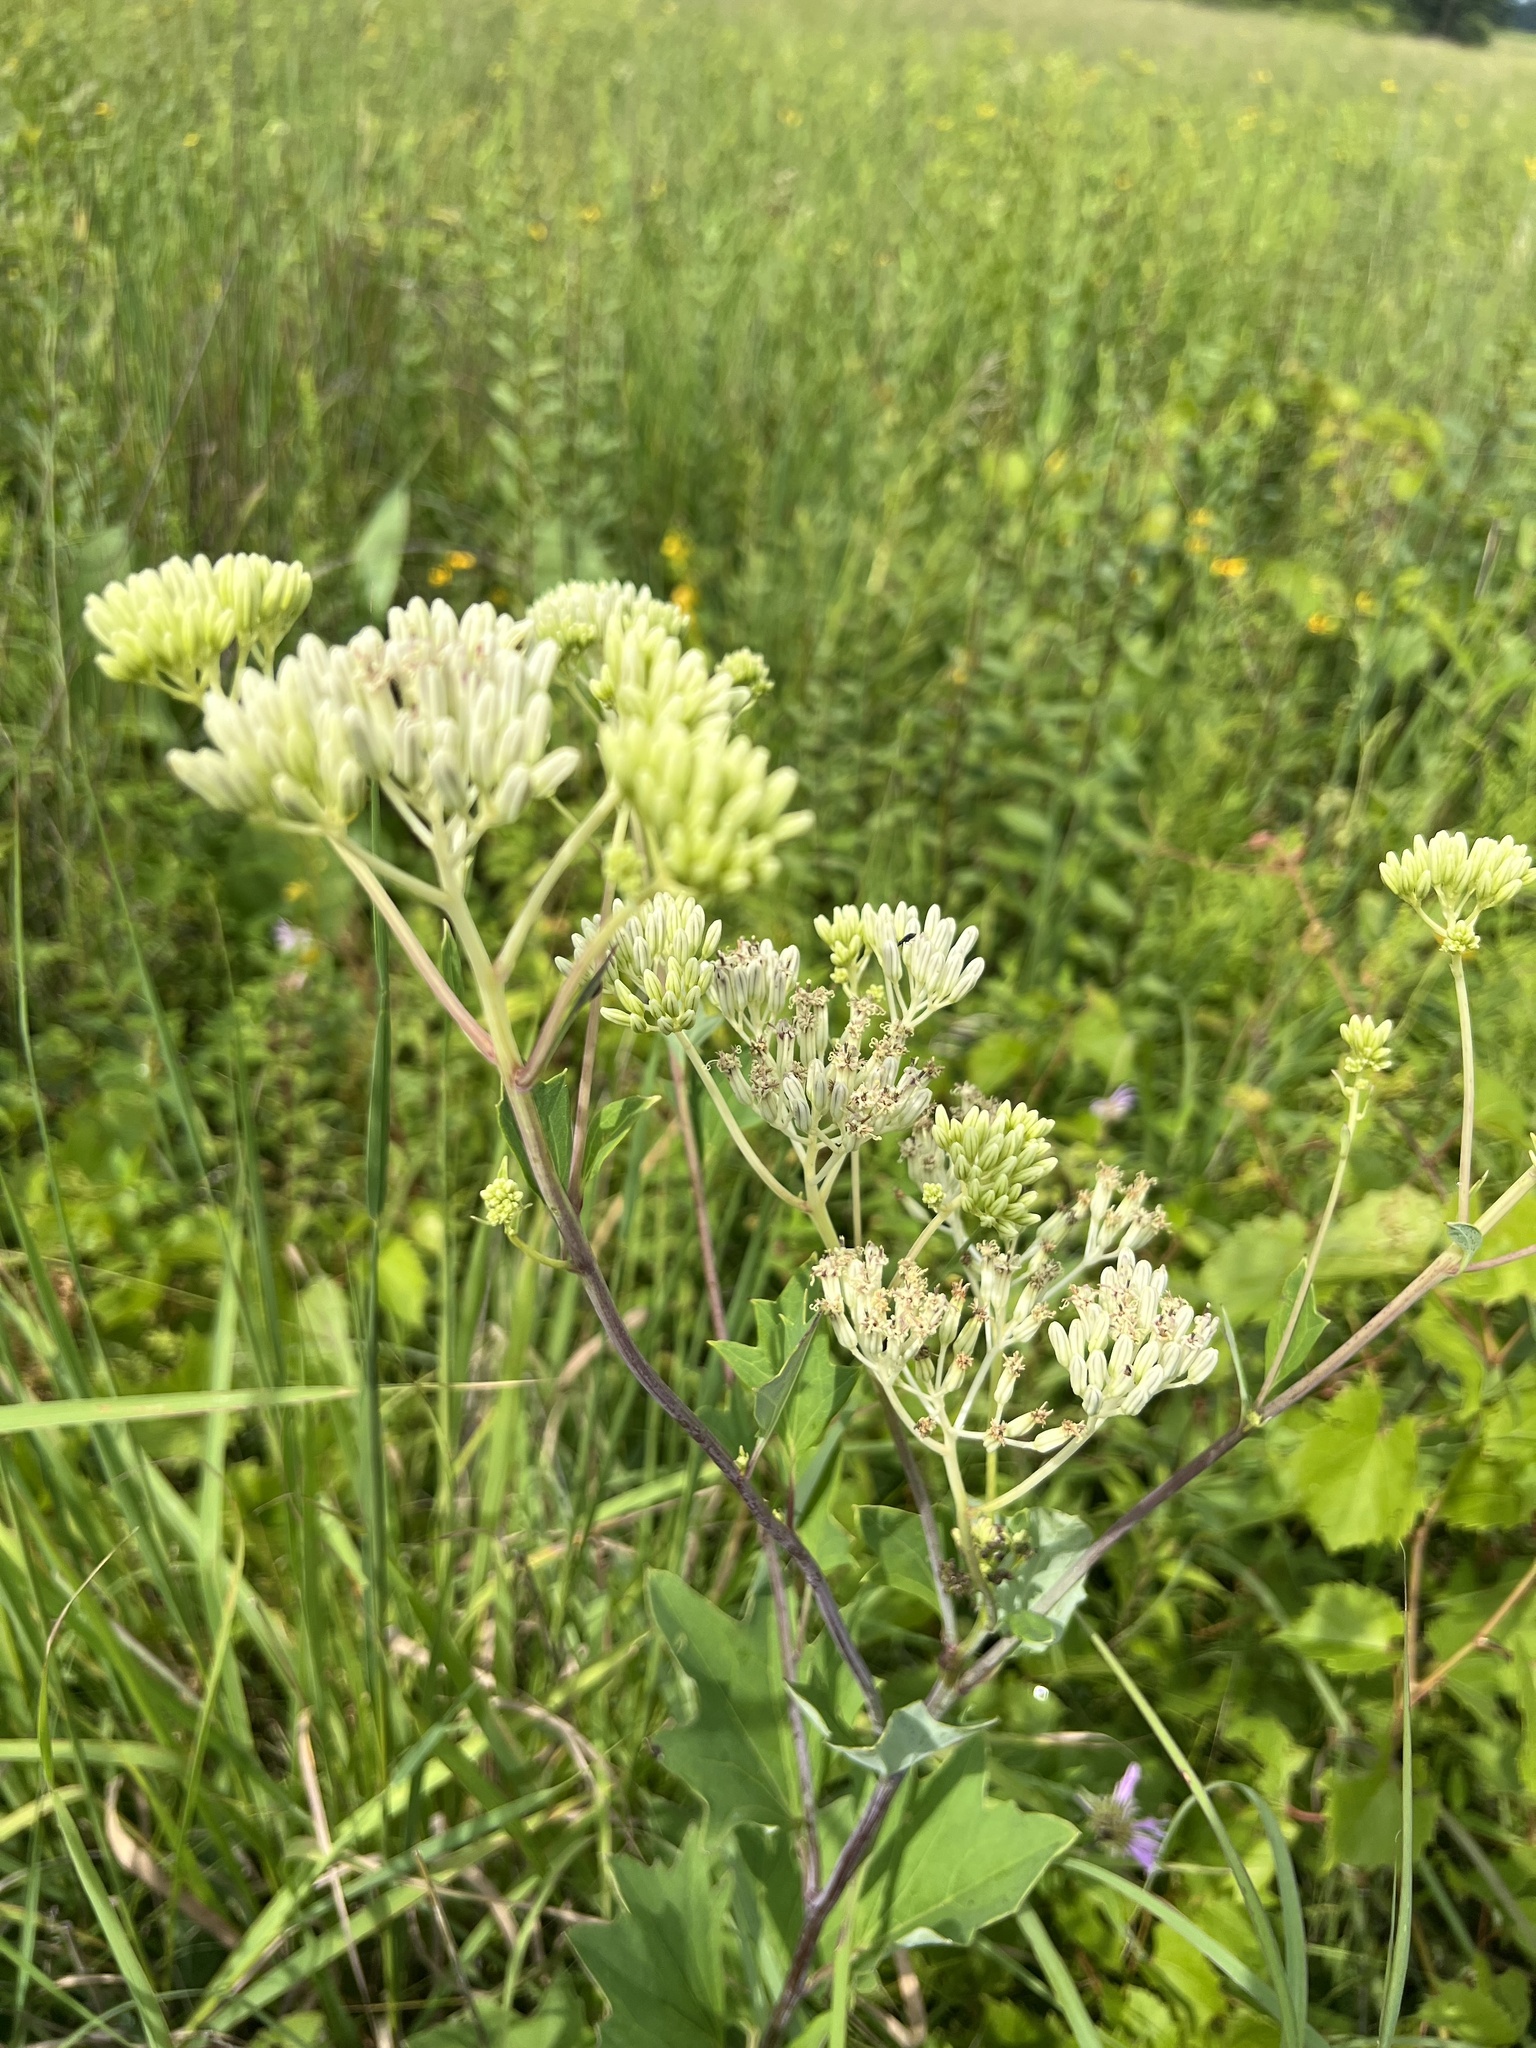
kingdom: Plantae
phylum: Tracheophyta
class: Magnoliopsida
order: Asterales
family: Asteraceae
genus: Arnoglossum
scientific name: Arnoglossum atriplicifolium
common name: Pale indian-plantain
